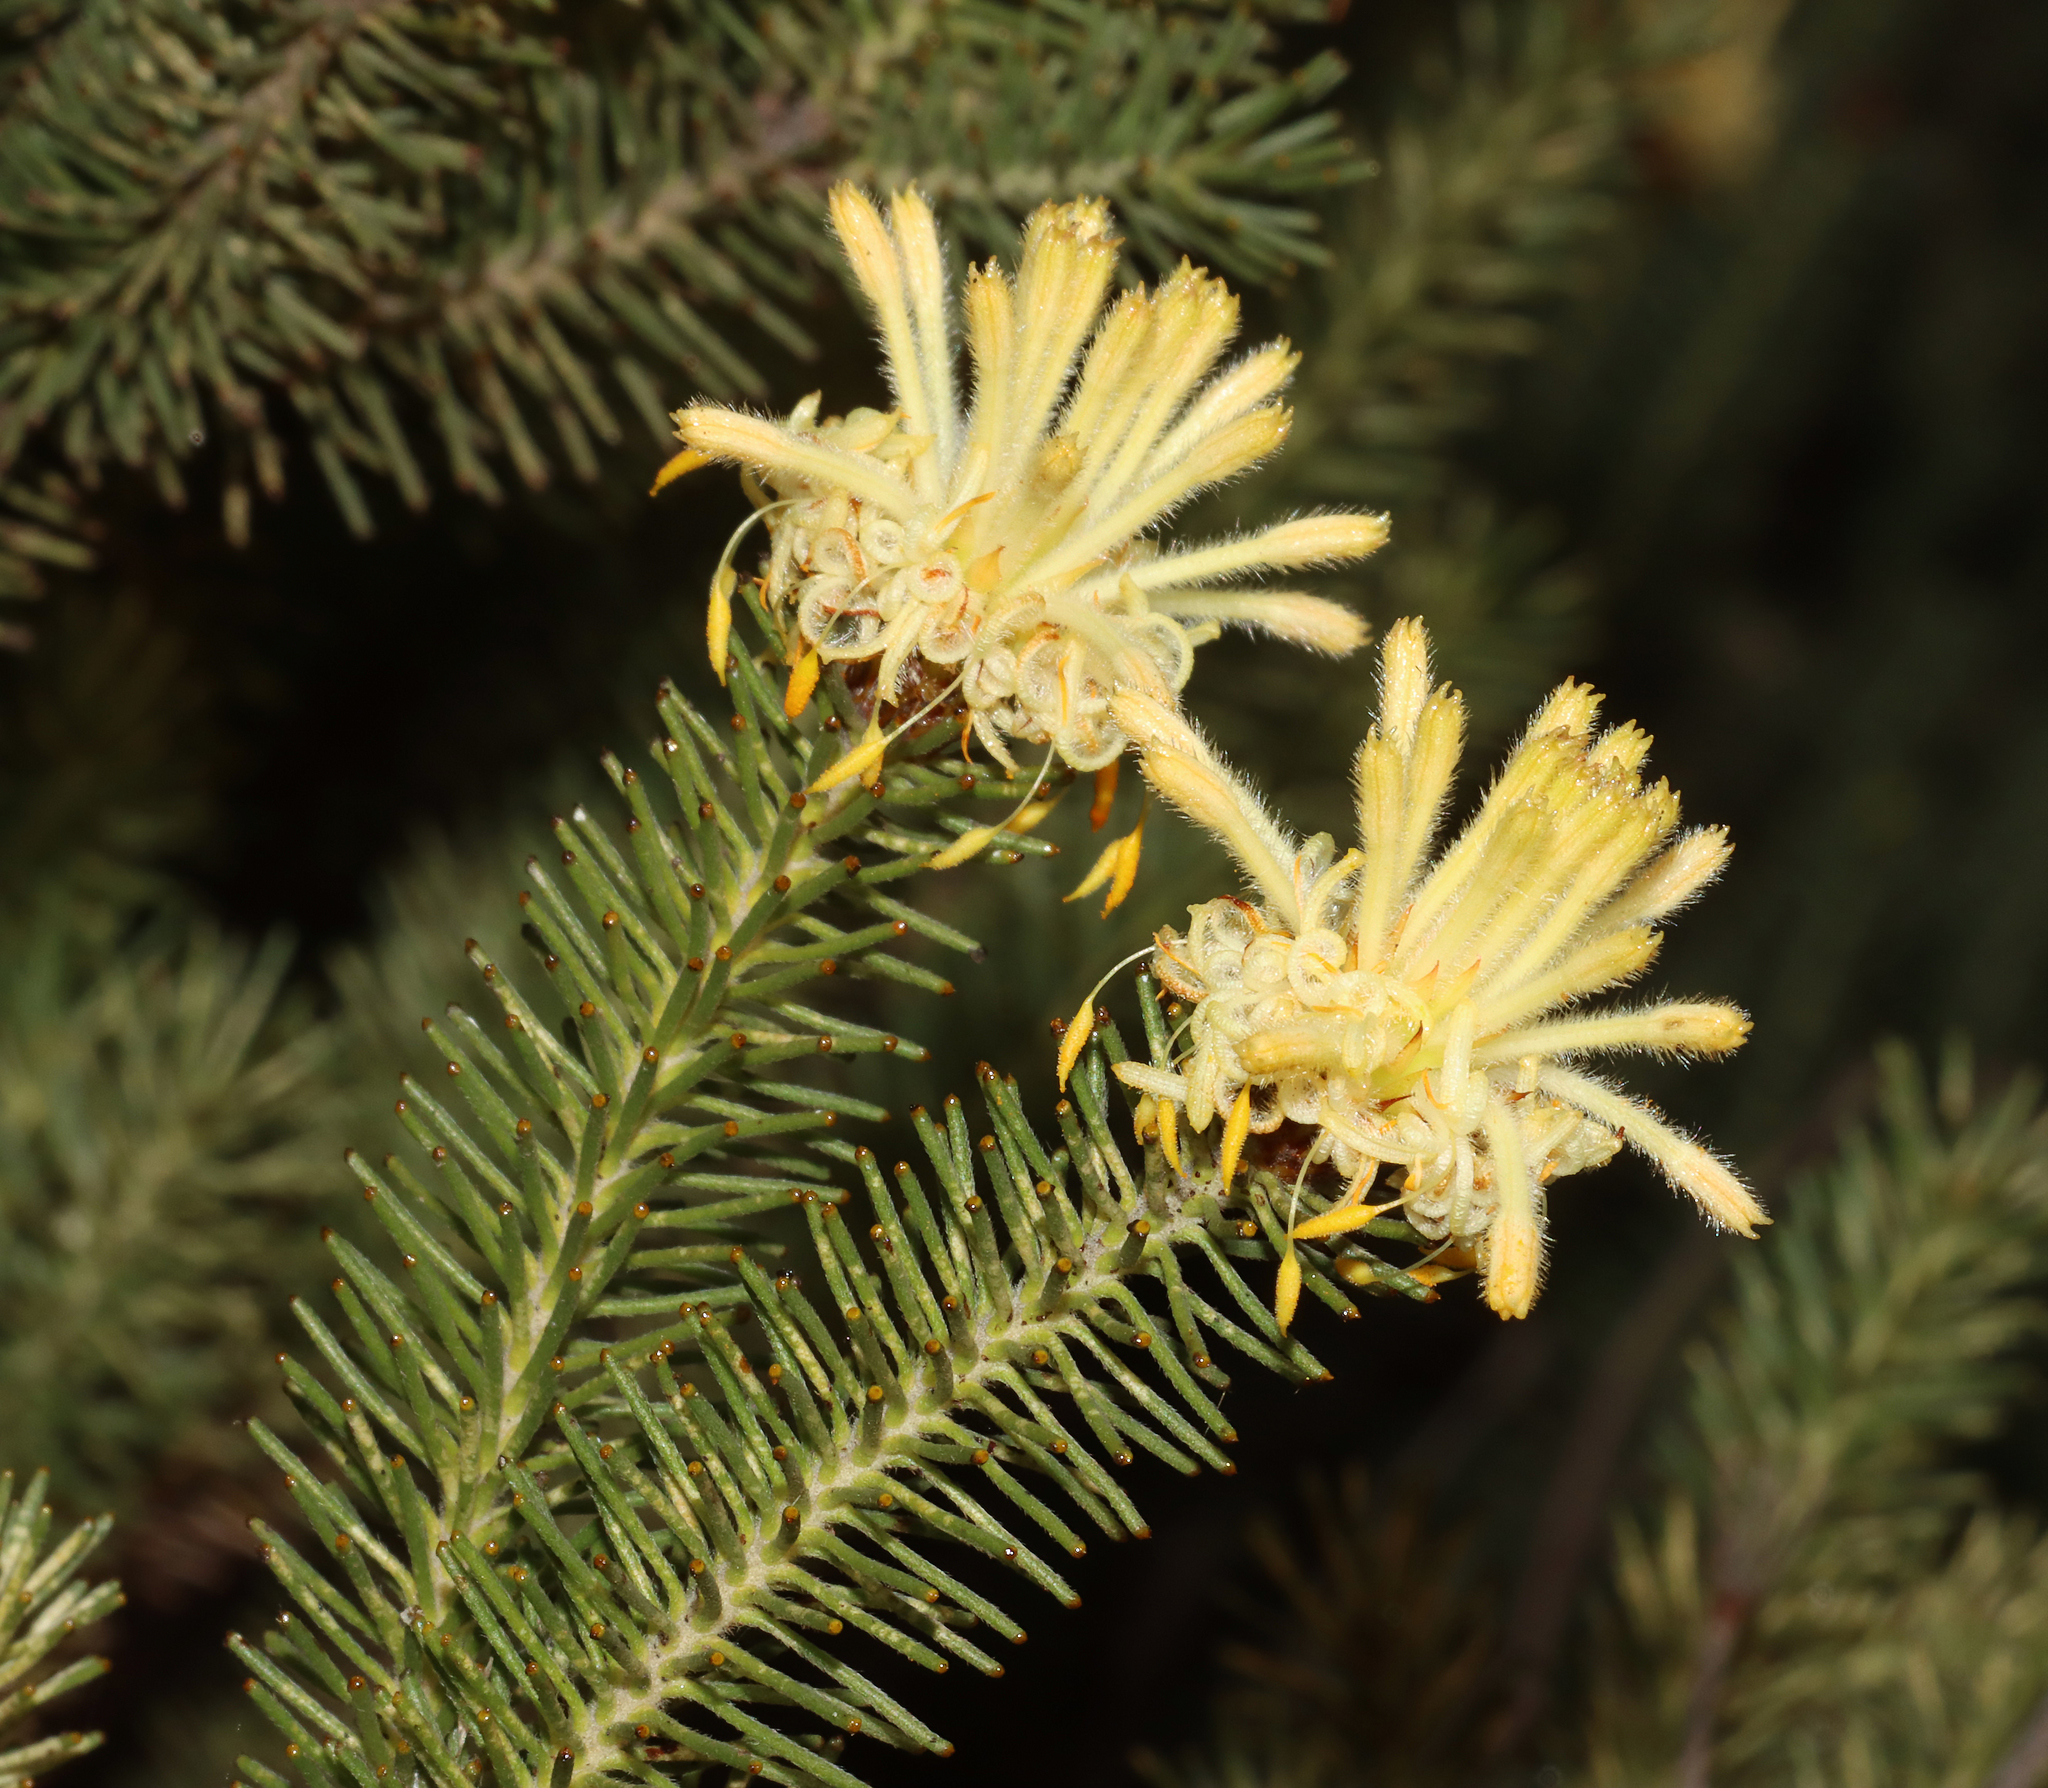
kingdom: Plantae
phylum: Tracheophyta
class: Magnoliopsida
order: Proteales
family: Proteaceae
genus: Petrophile
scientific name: Petrophile ericifolia
